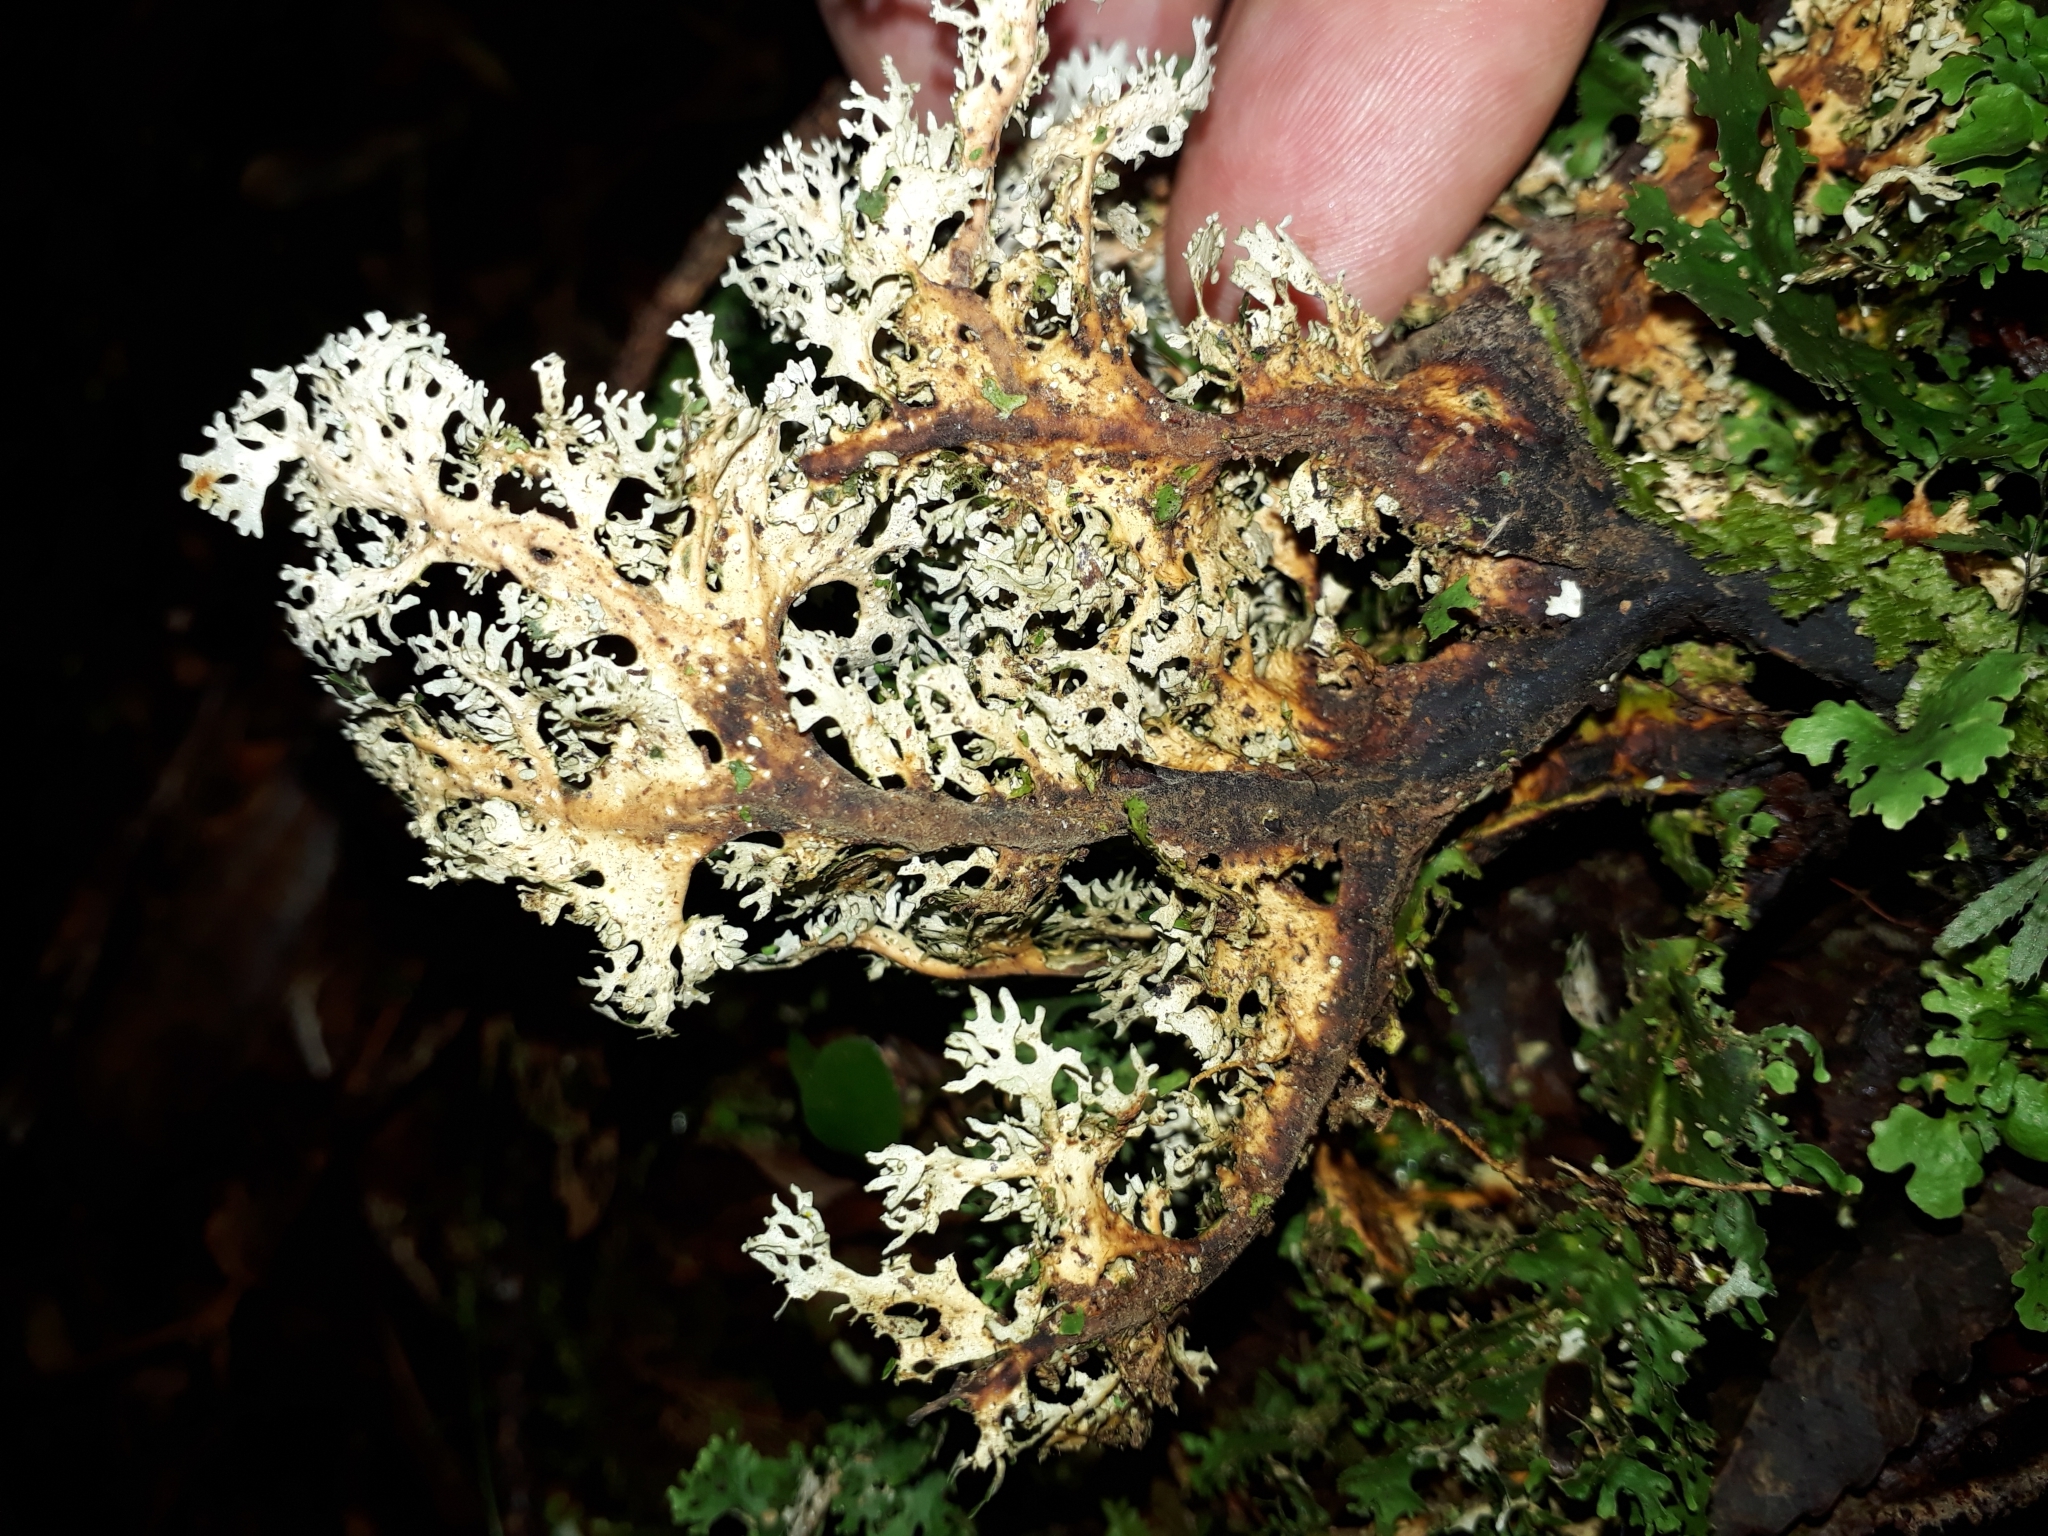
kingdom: Fungi
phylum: Ascomycota
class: Lecanoromycetes
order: Peltigerales
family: Lobariaceae
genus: Sticta
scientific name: Sticta filix
